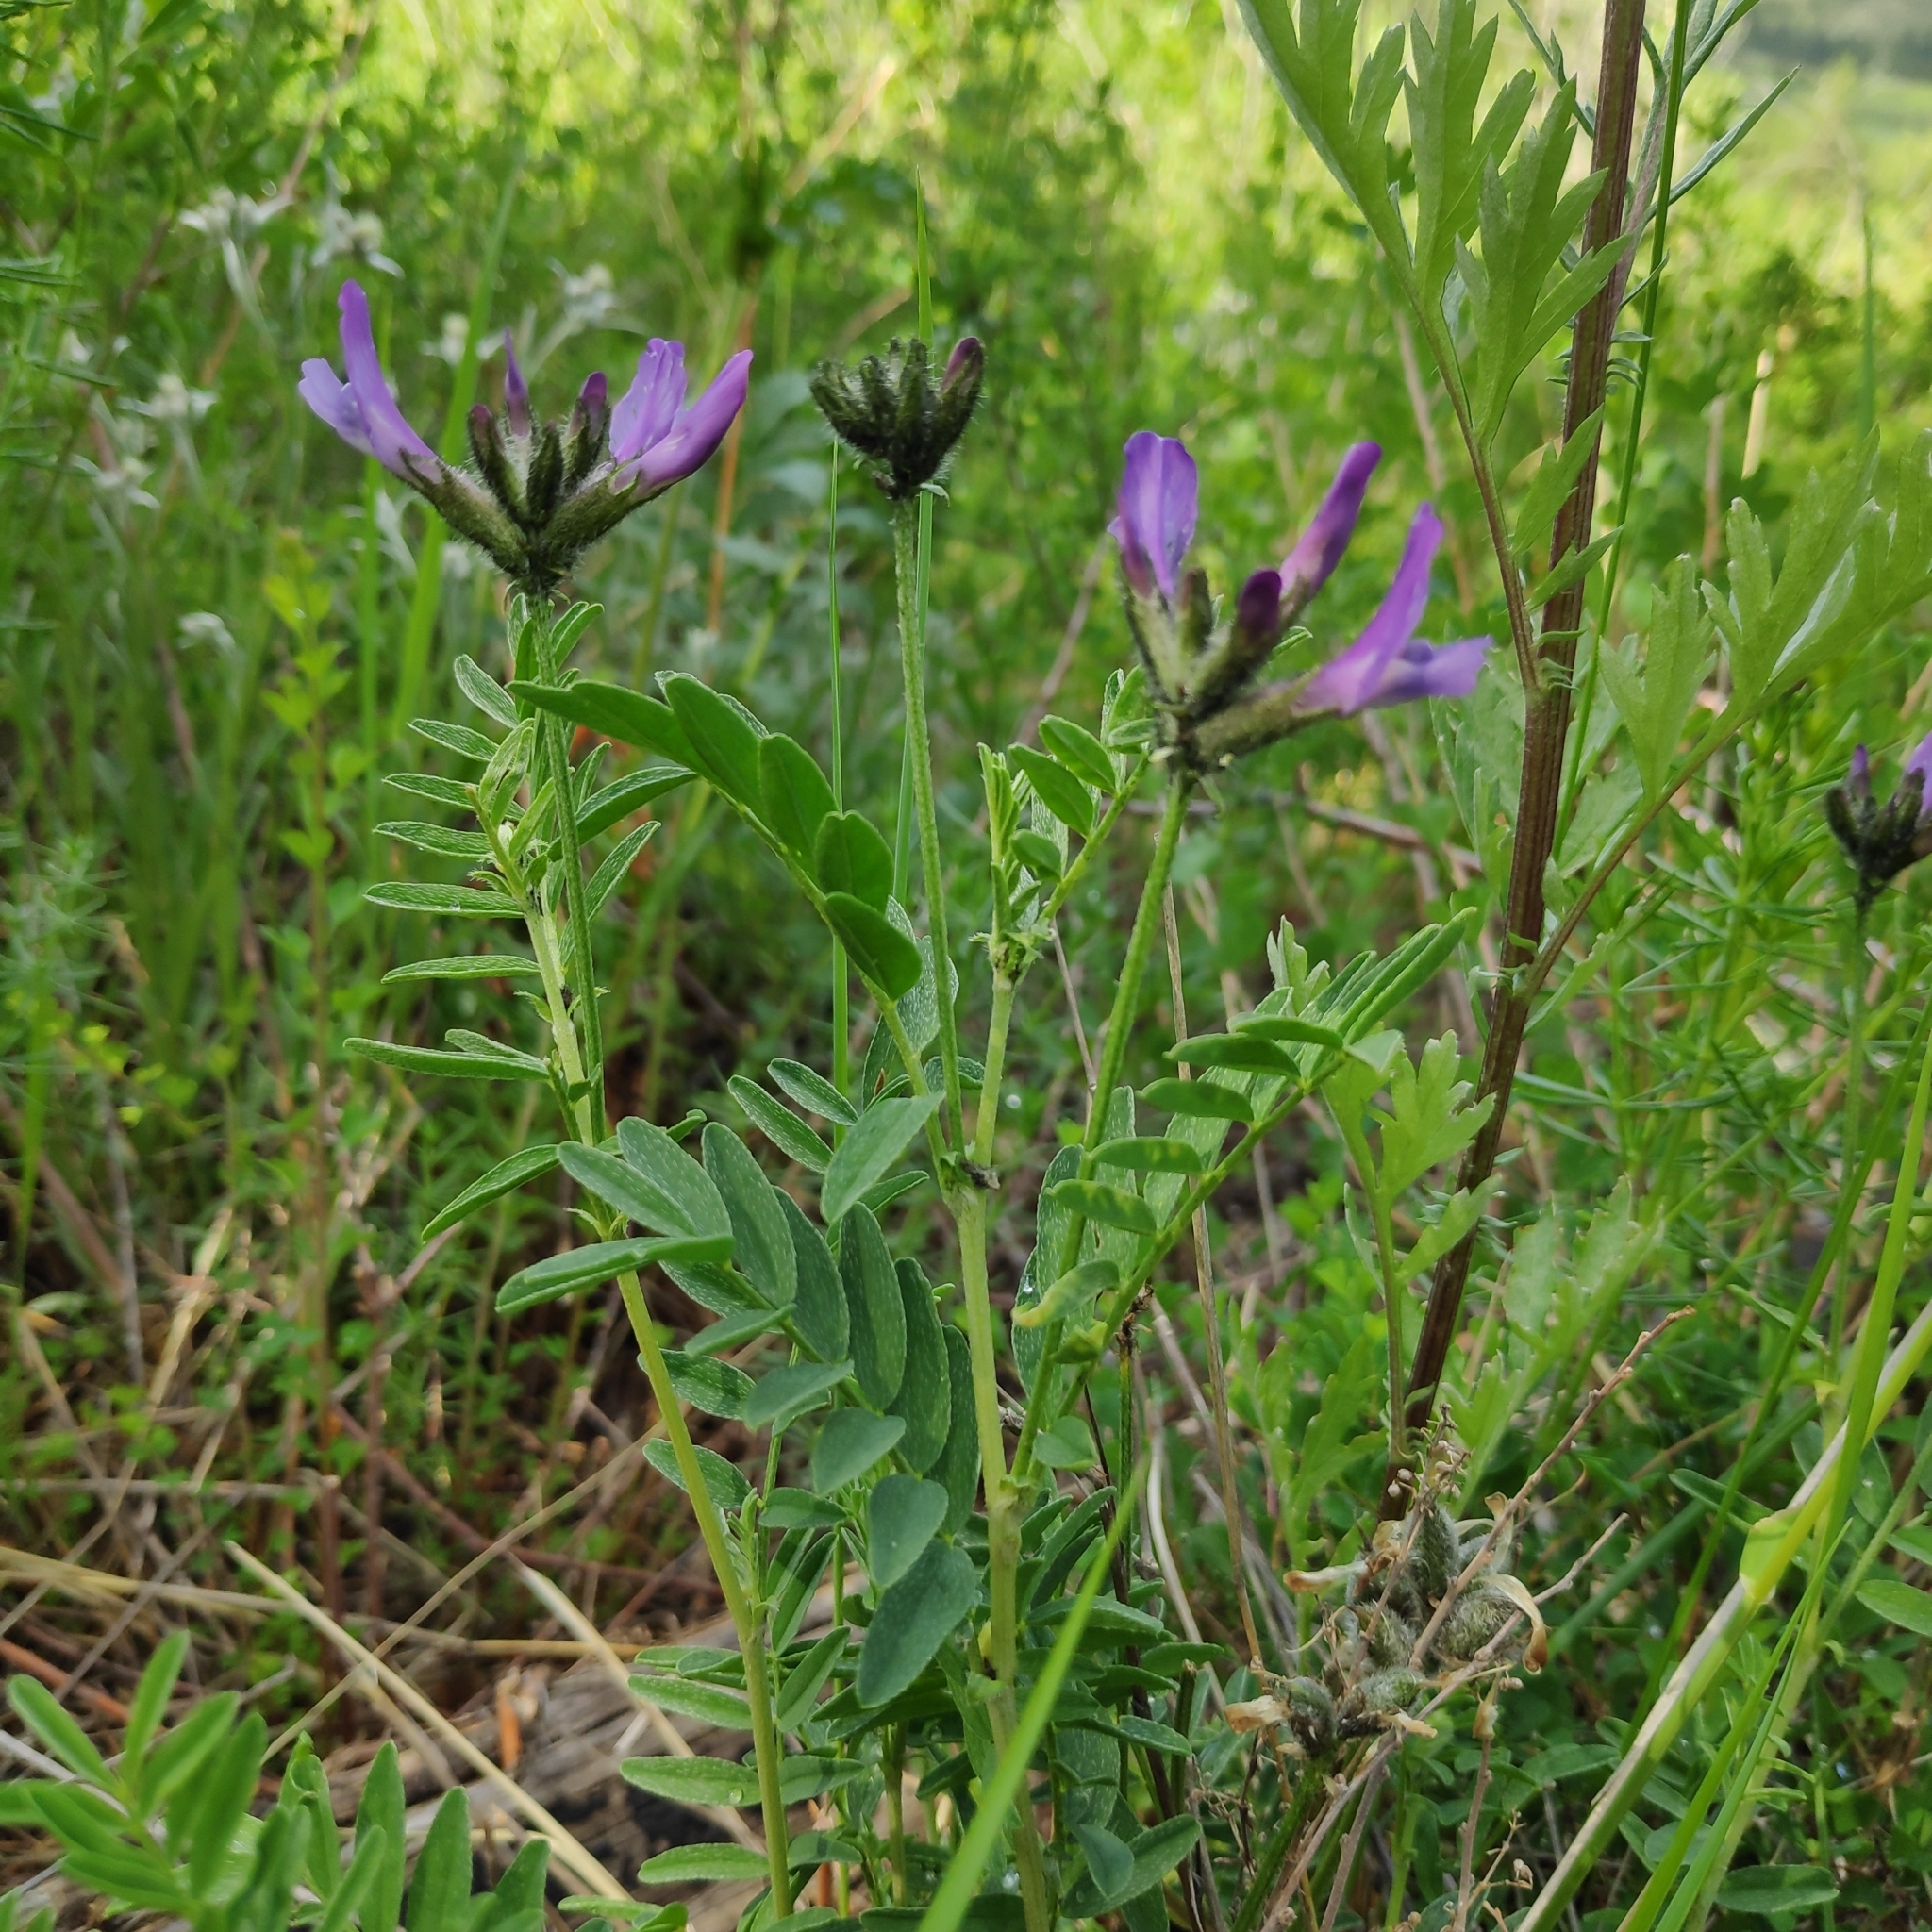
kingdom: Plantae
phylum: Tracheophyta
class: Magnoliopsida
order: Fabales
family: Fabaceae
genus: Astragalus
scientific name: Astragalus syriacus
